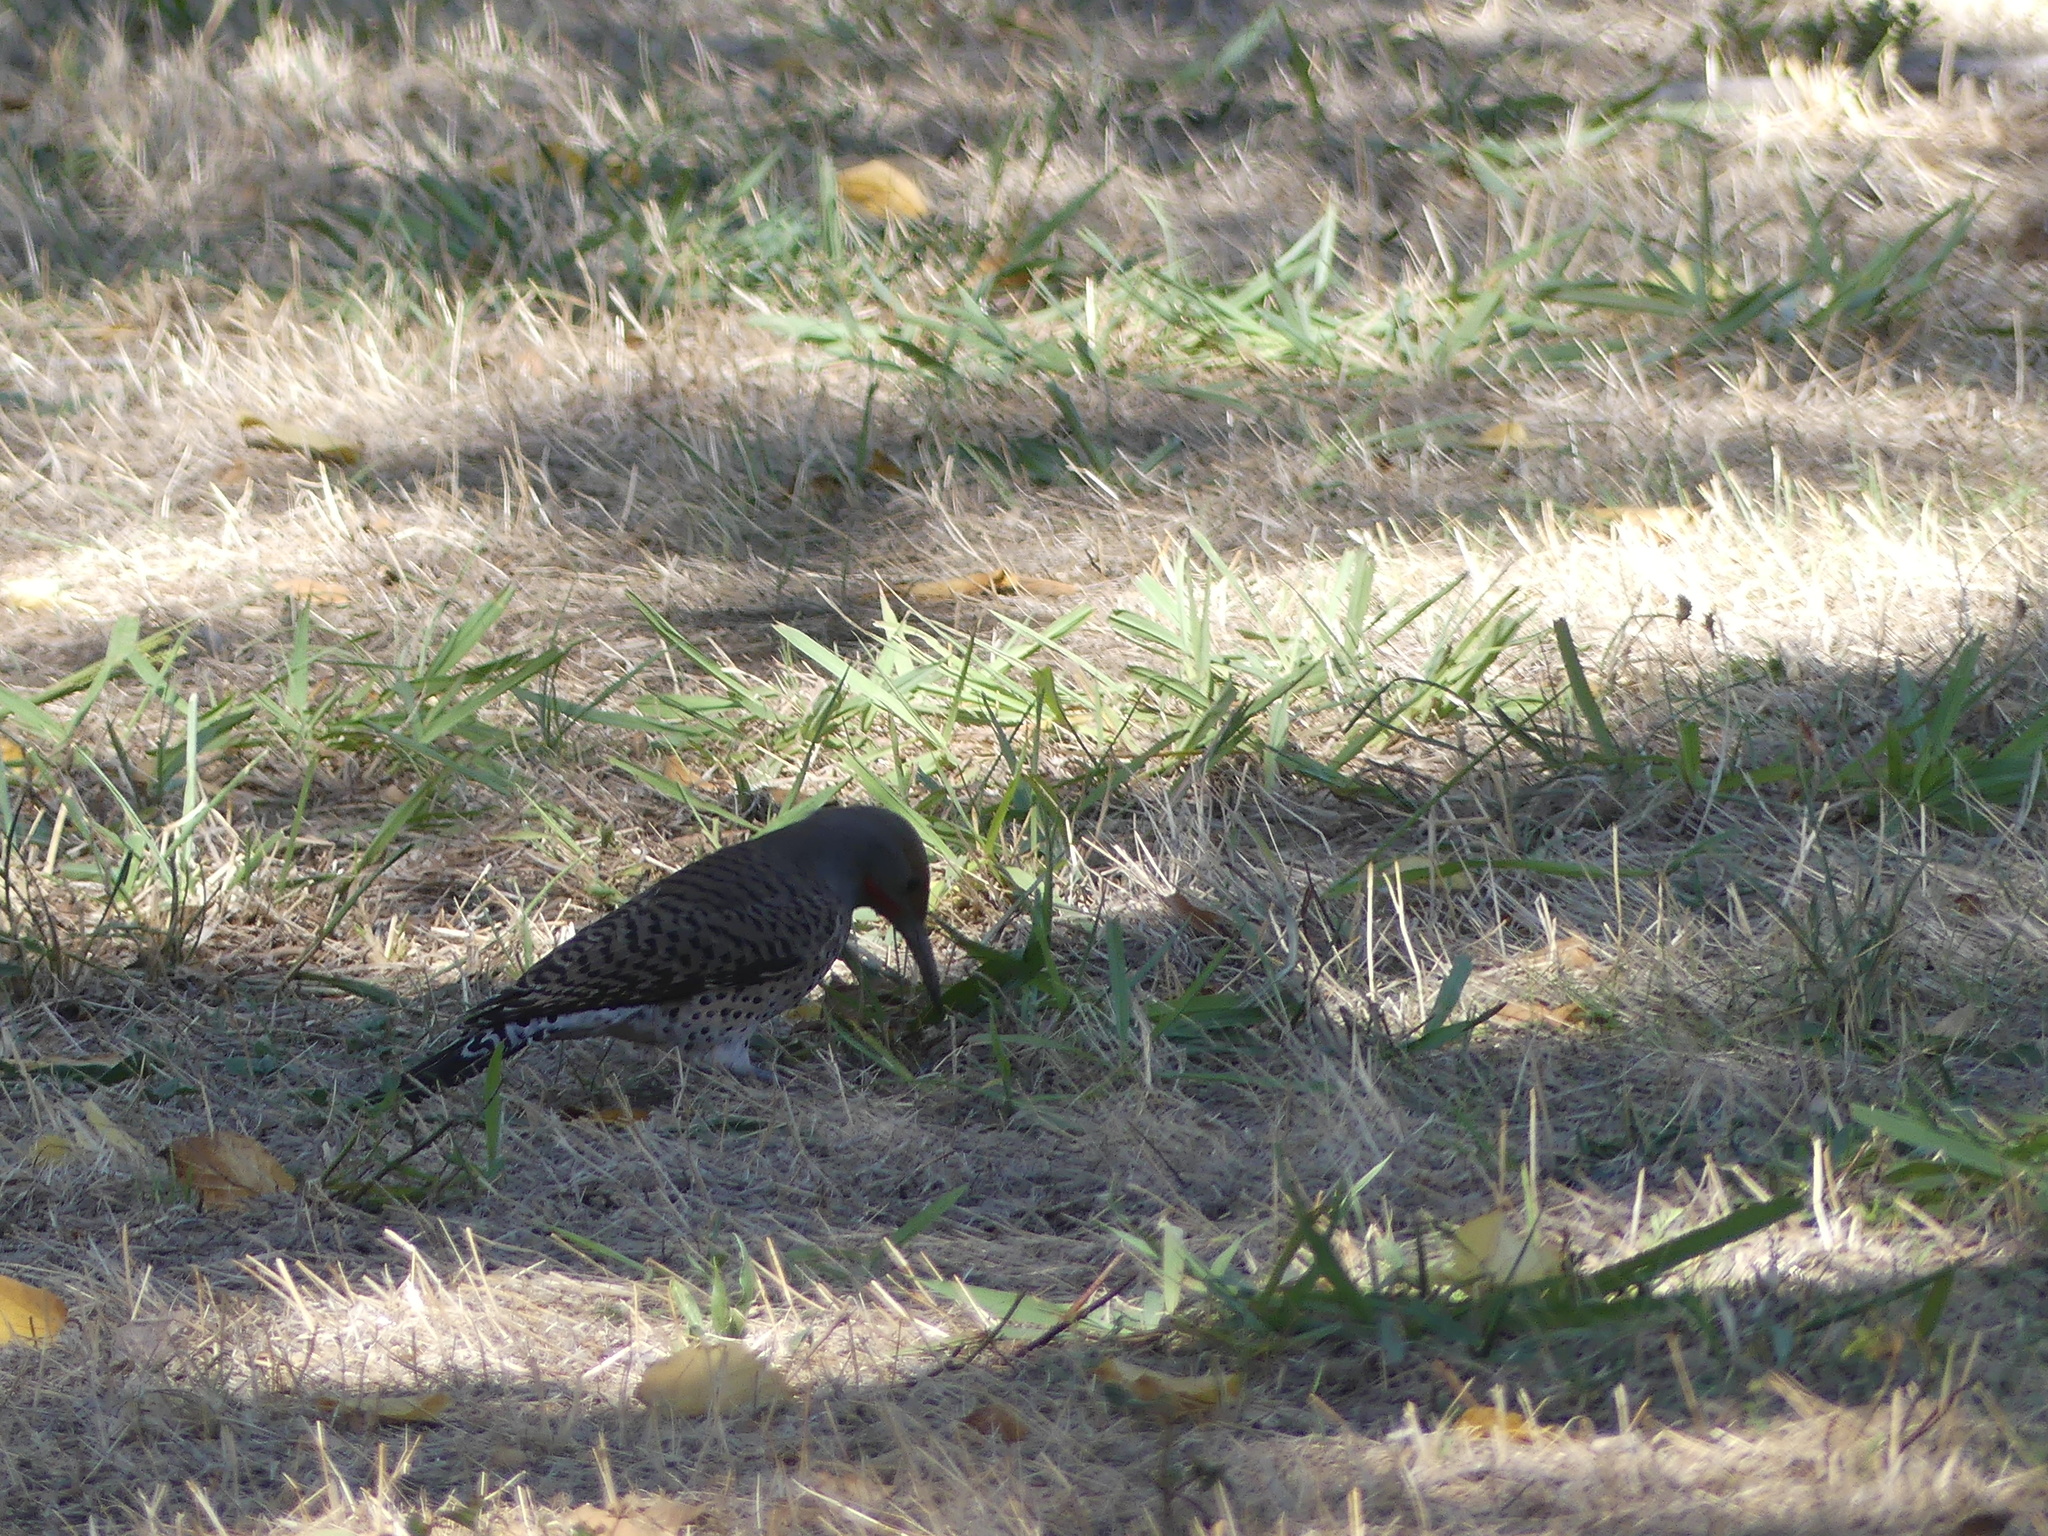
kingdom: Animalia
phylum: Chordata
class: Aves
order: Piciformes
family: Picidae
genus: Colaptes
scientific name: Colaptes auratus
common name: Northern flicker
